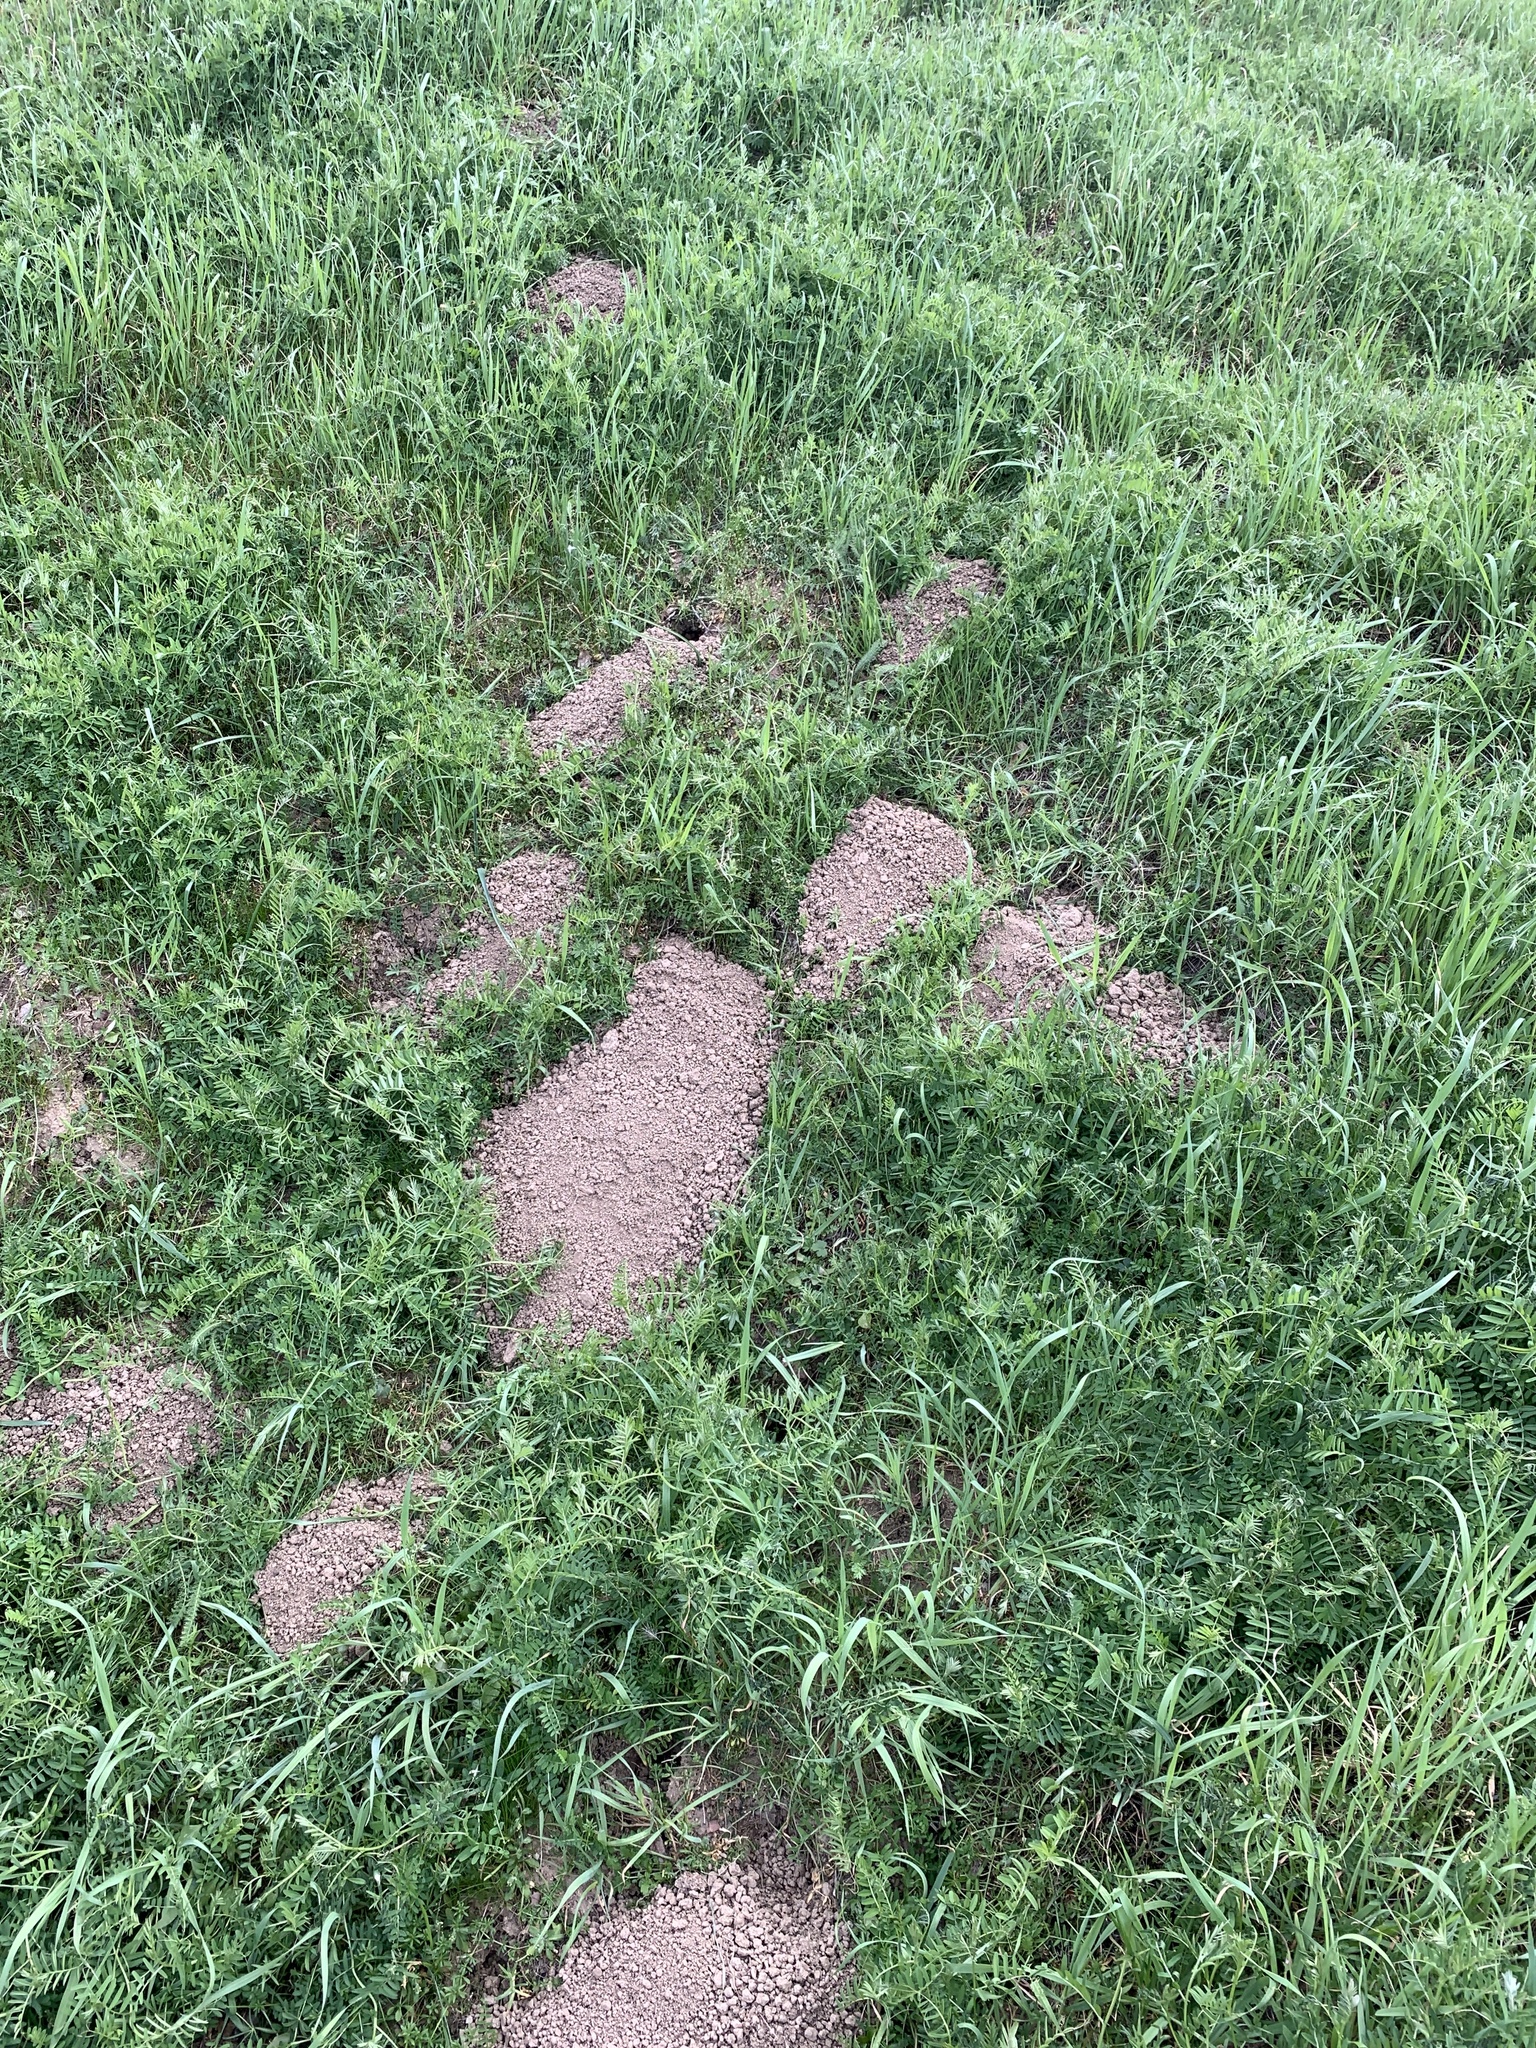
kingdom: Animalia
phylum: Chordata
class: Mammalia
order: Rodentia
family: Geomyidae
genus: Thomomys
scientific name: Thomomys bottae
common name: Botta's pocket gopher
